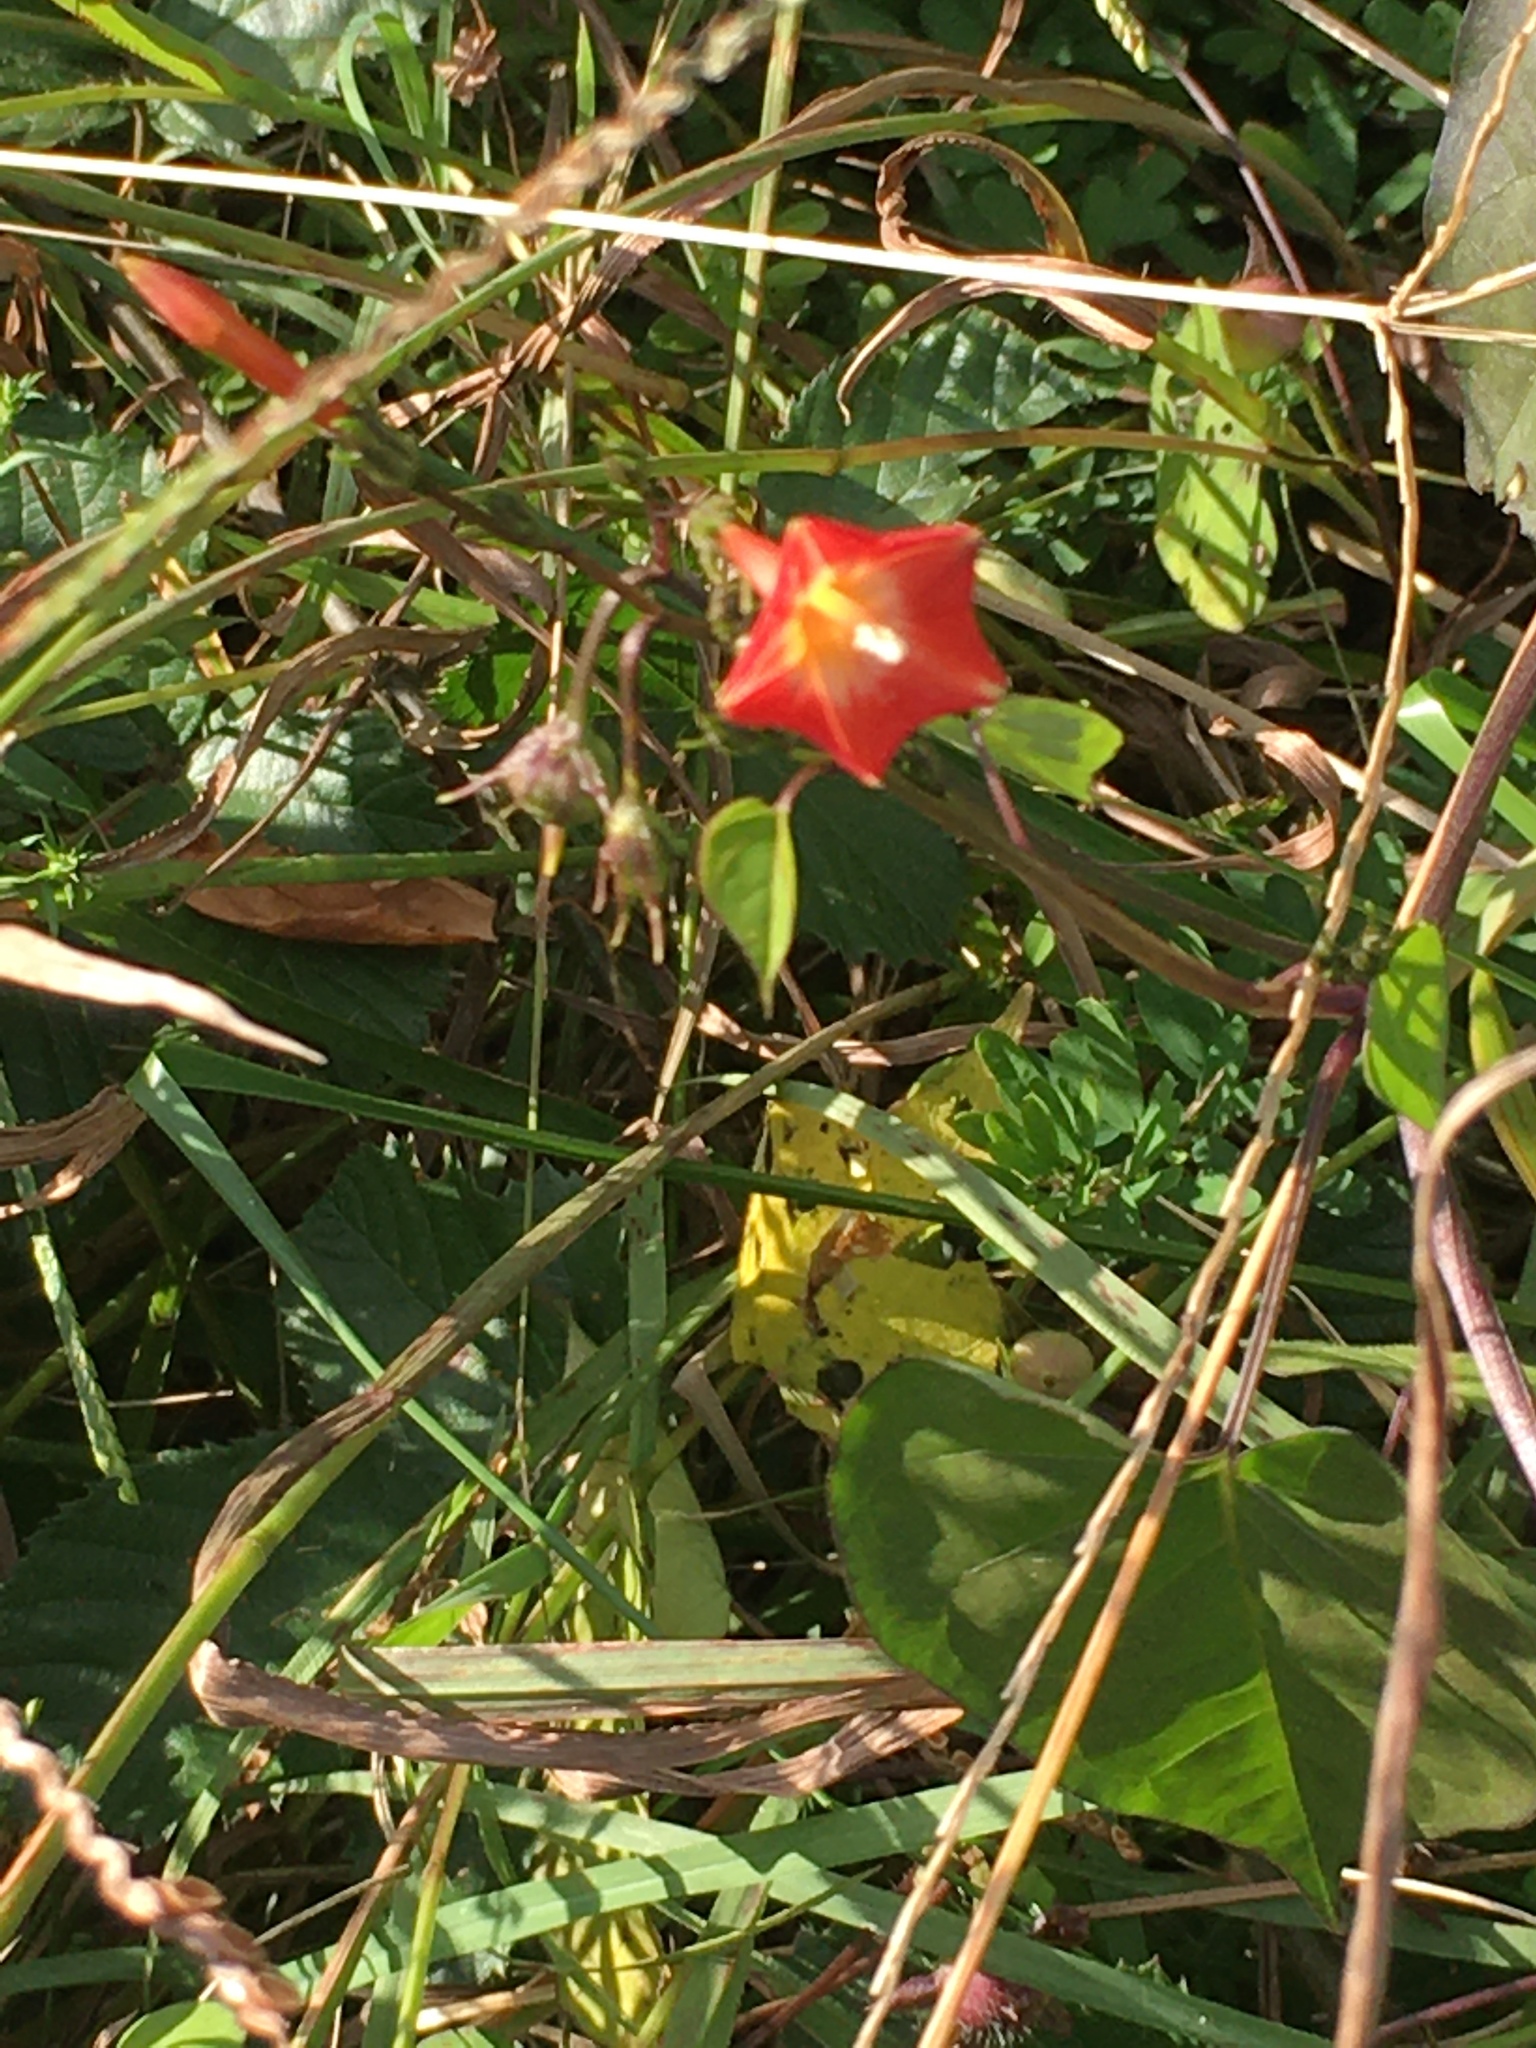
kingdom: Plantae
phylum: Tracheophyta
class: Magnoliopsida
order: Solanales
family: Convolvulaceae
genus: Ipomoea
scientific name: Ipomoea coccinea
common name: Red morning-glory
